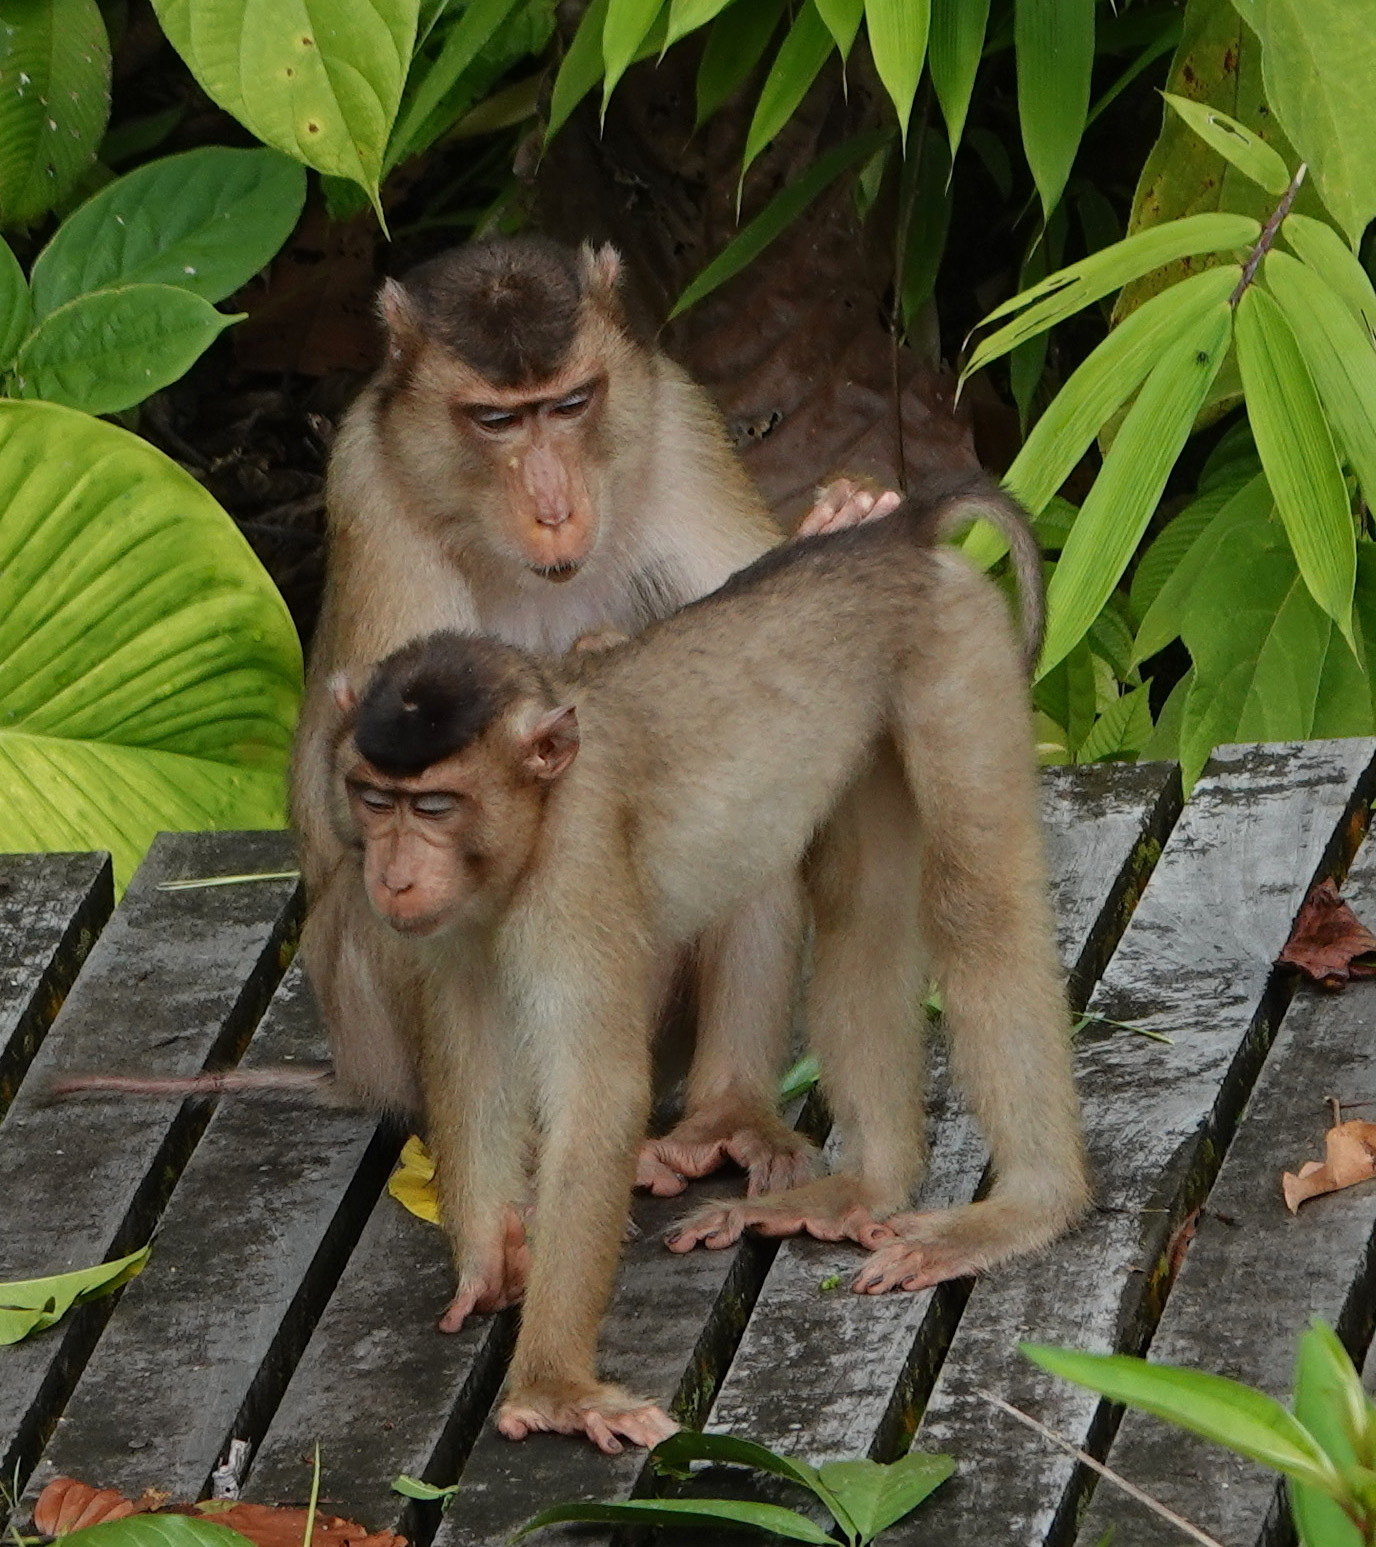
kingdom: Animalia
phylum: Chordata
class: Mammalia
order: Primates
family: Cercopithecidae
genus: Macaca
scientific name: Macaca nemestrina
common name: Southern pig-tailed macaque
